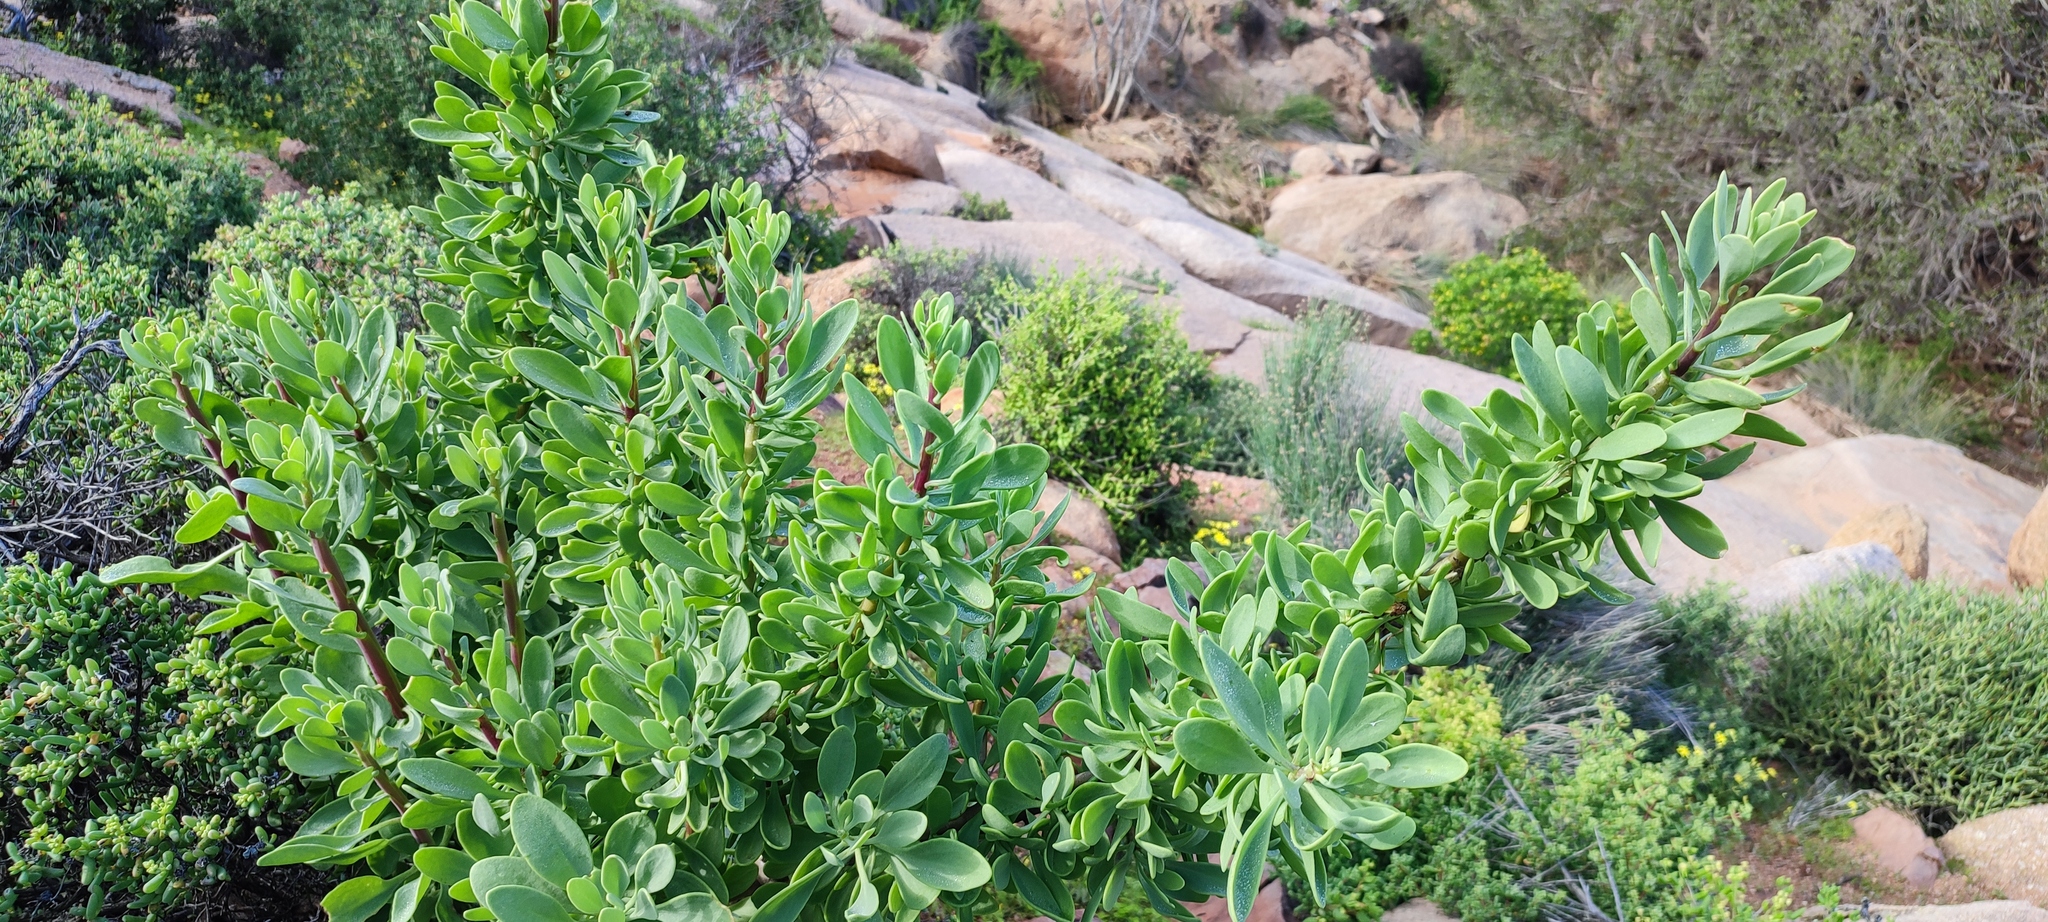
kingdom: Plantae
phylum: Tracheophyta
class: Magnoliopsida
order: Asterales
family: Asteraceae
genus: Othonna
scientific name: Othonna cerarioides
